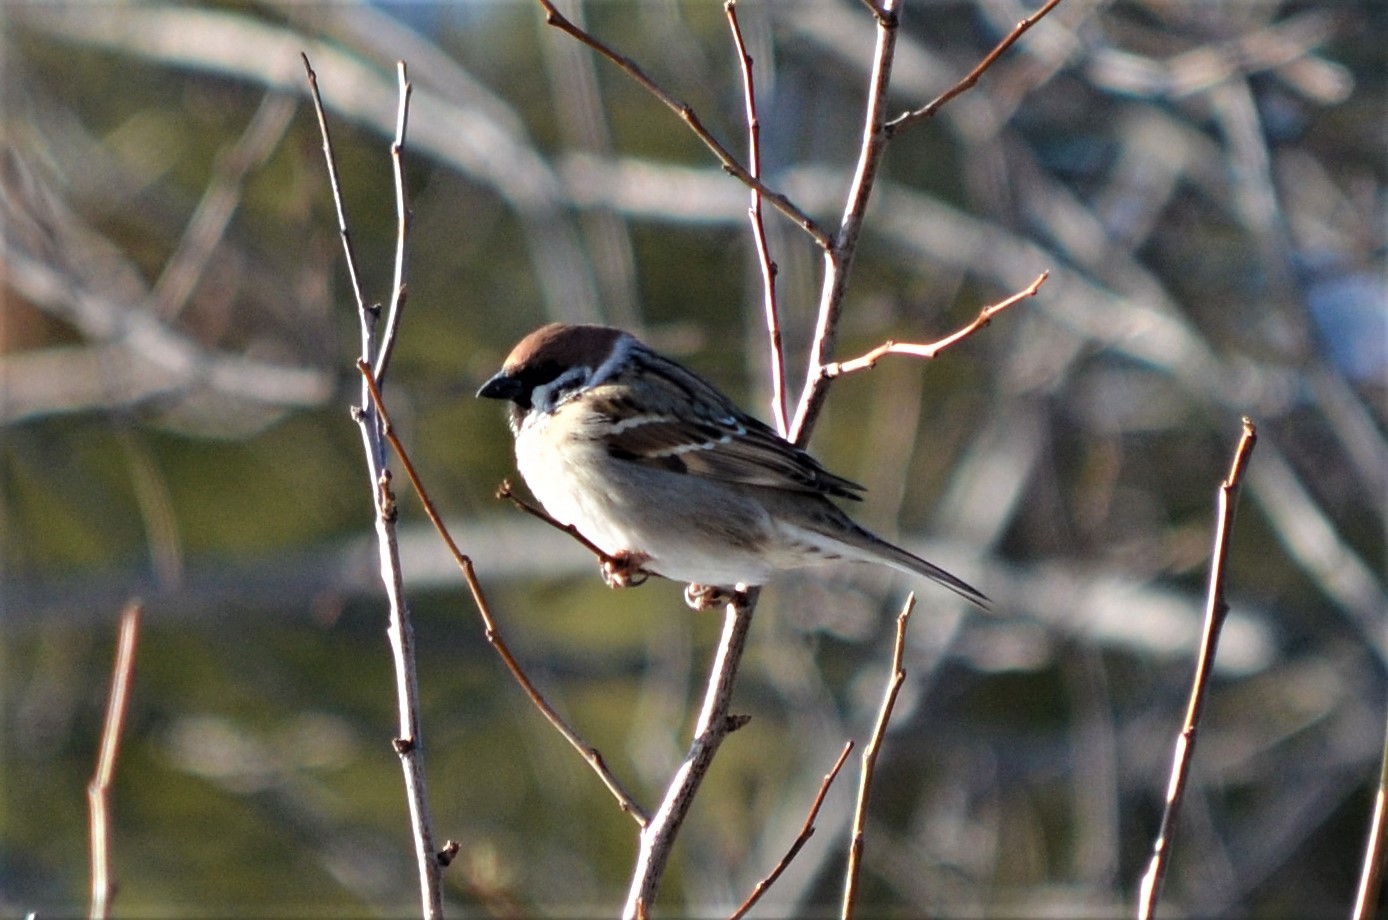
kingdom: Animalia
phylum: Chordata
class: Aves
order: Passeriformes
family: Passeridae
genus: Passer
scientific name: Passer montanus
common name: Eurasian tree sparrow
